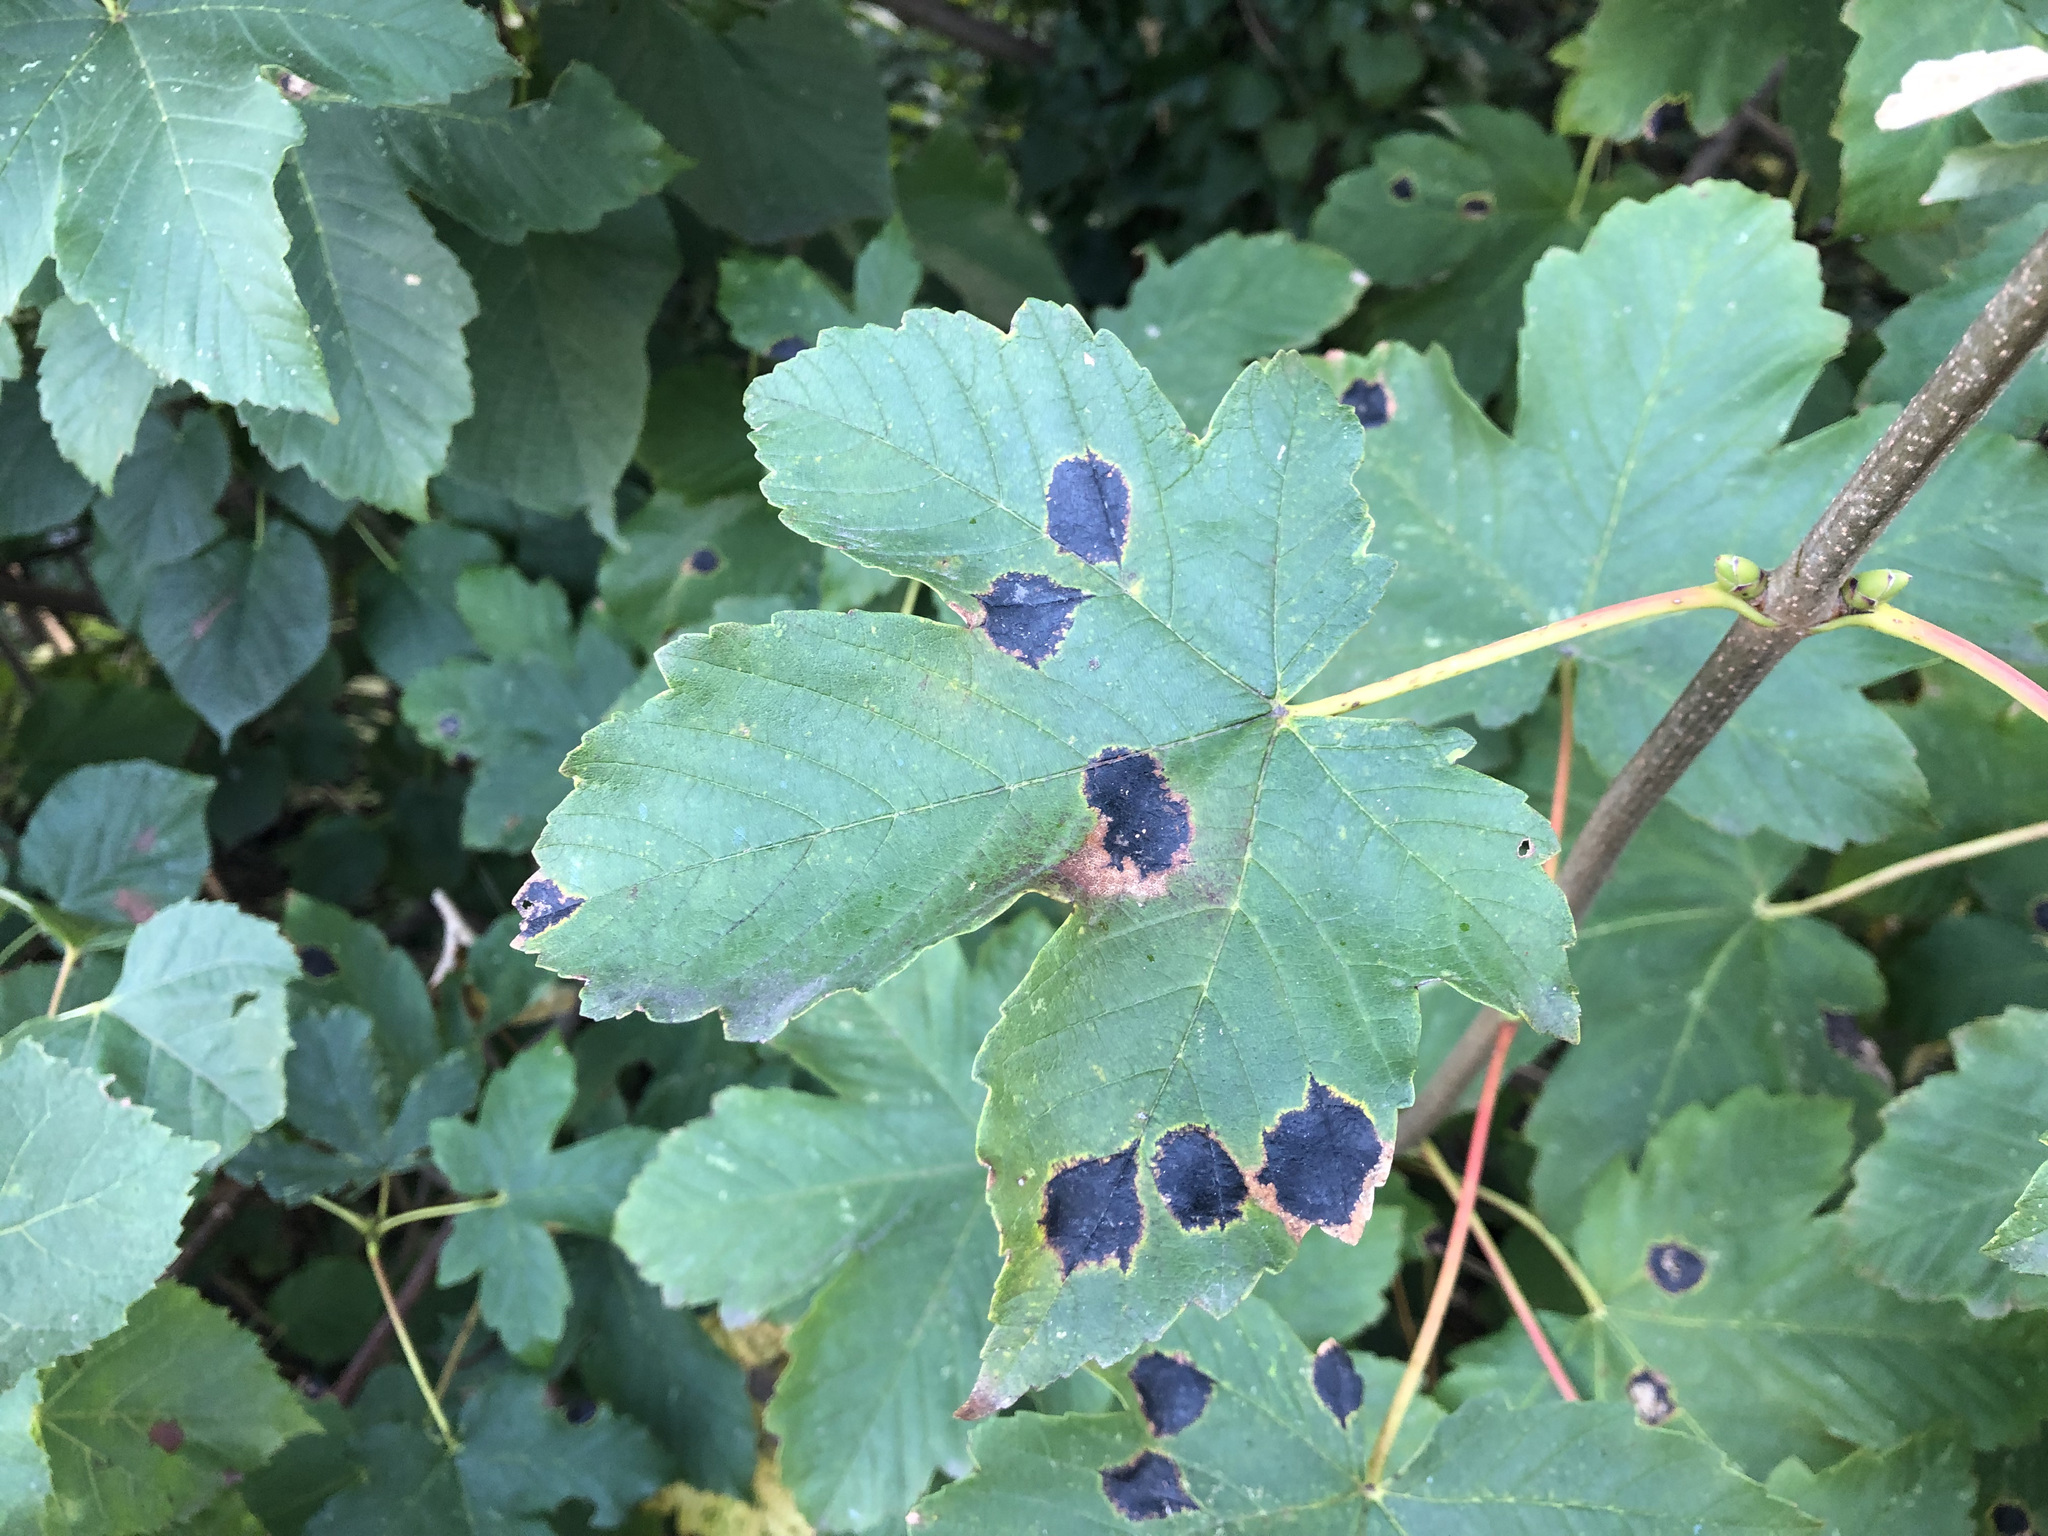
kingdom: Fungi
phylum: Ascomycota
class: Leotiomycetes
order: Rhytismatales
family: Rhytismataceae
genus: Rhytisma
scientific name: Rhytisma acerinum
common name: European tar spot
